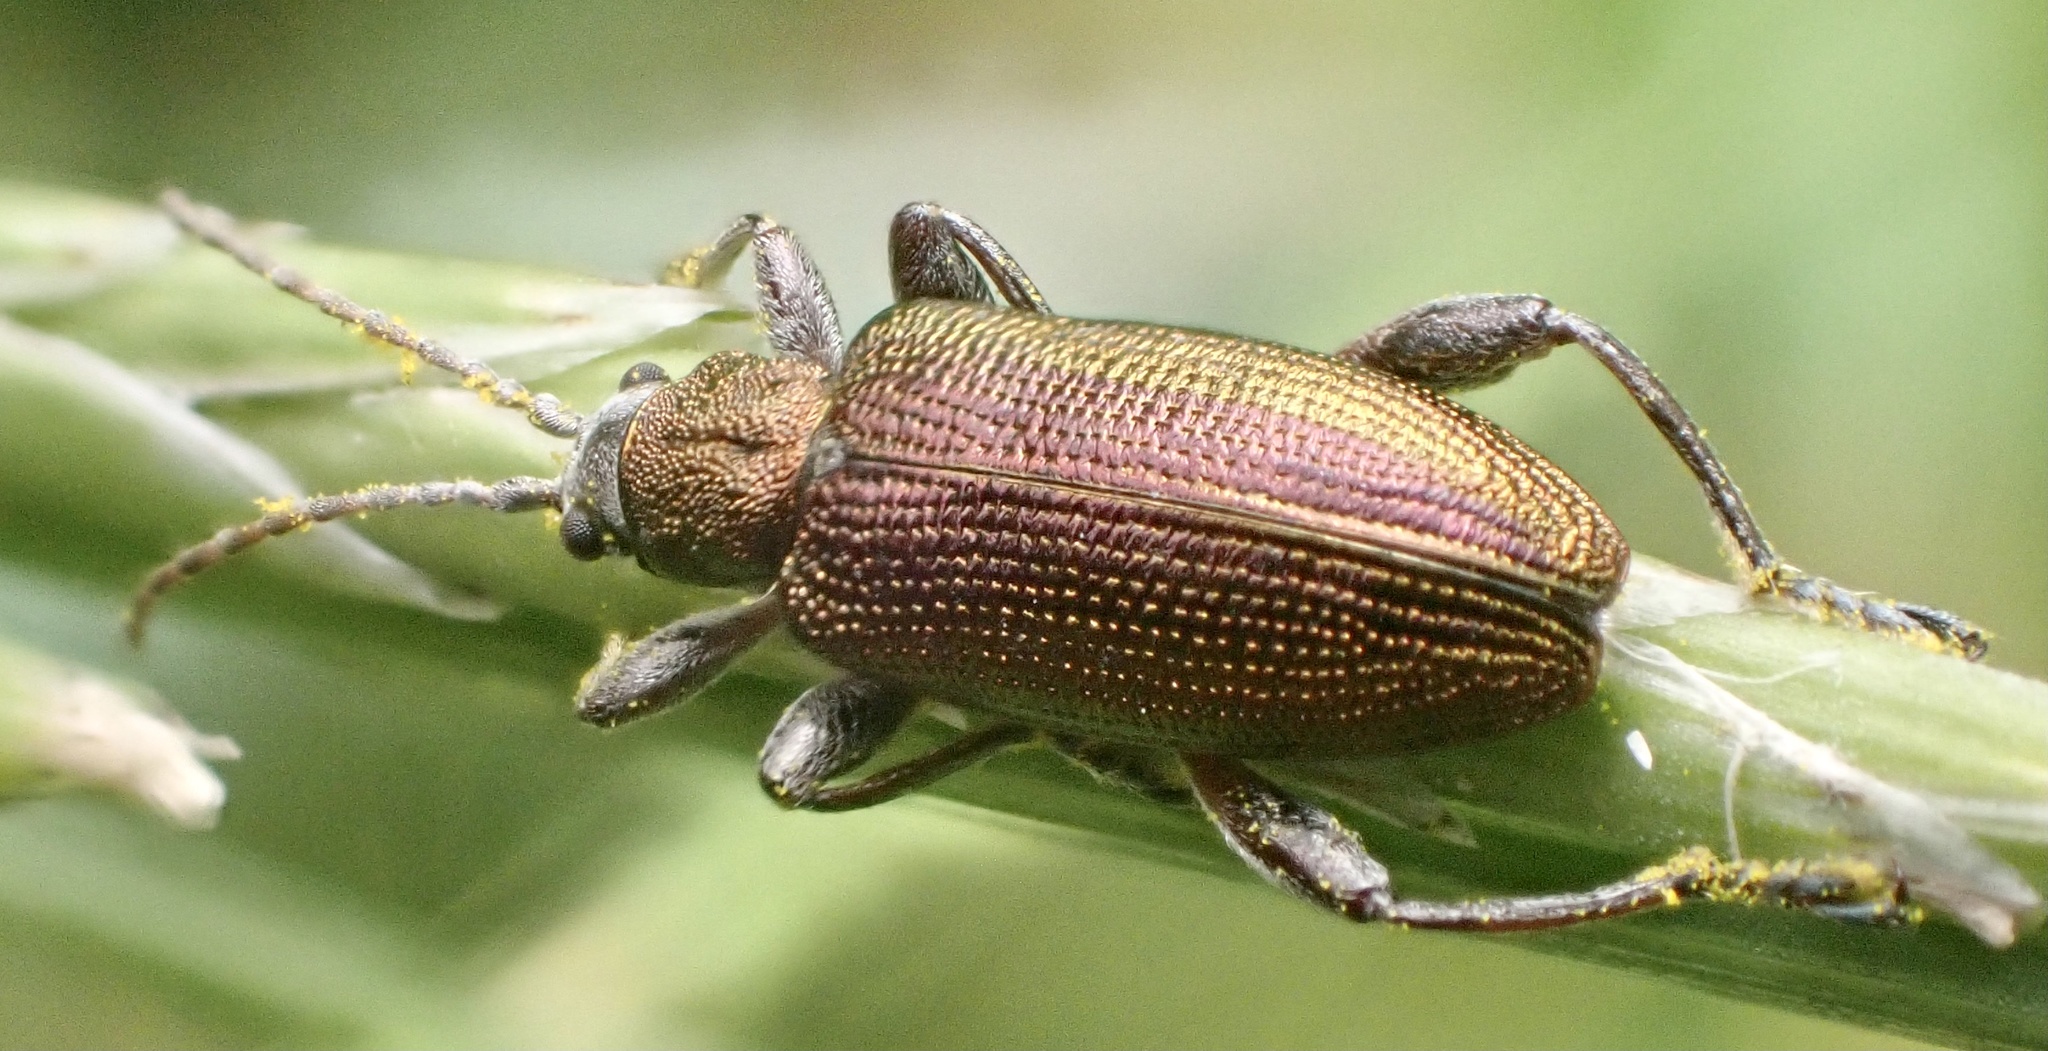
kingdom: Animalia
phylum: Arthropoda
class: Insecta
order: Coleoptera
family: Chrysomelidae
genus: Donacia
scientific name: Donacia semicuprea
